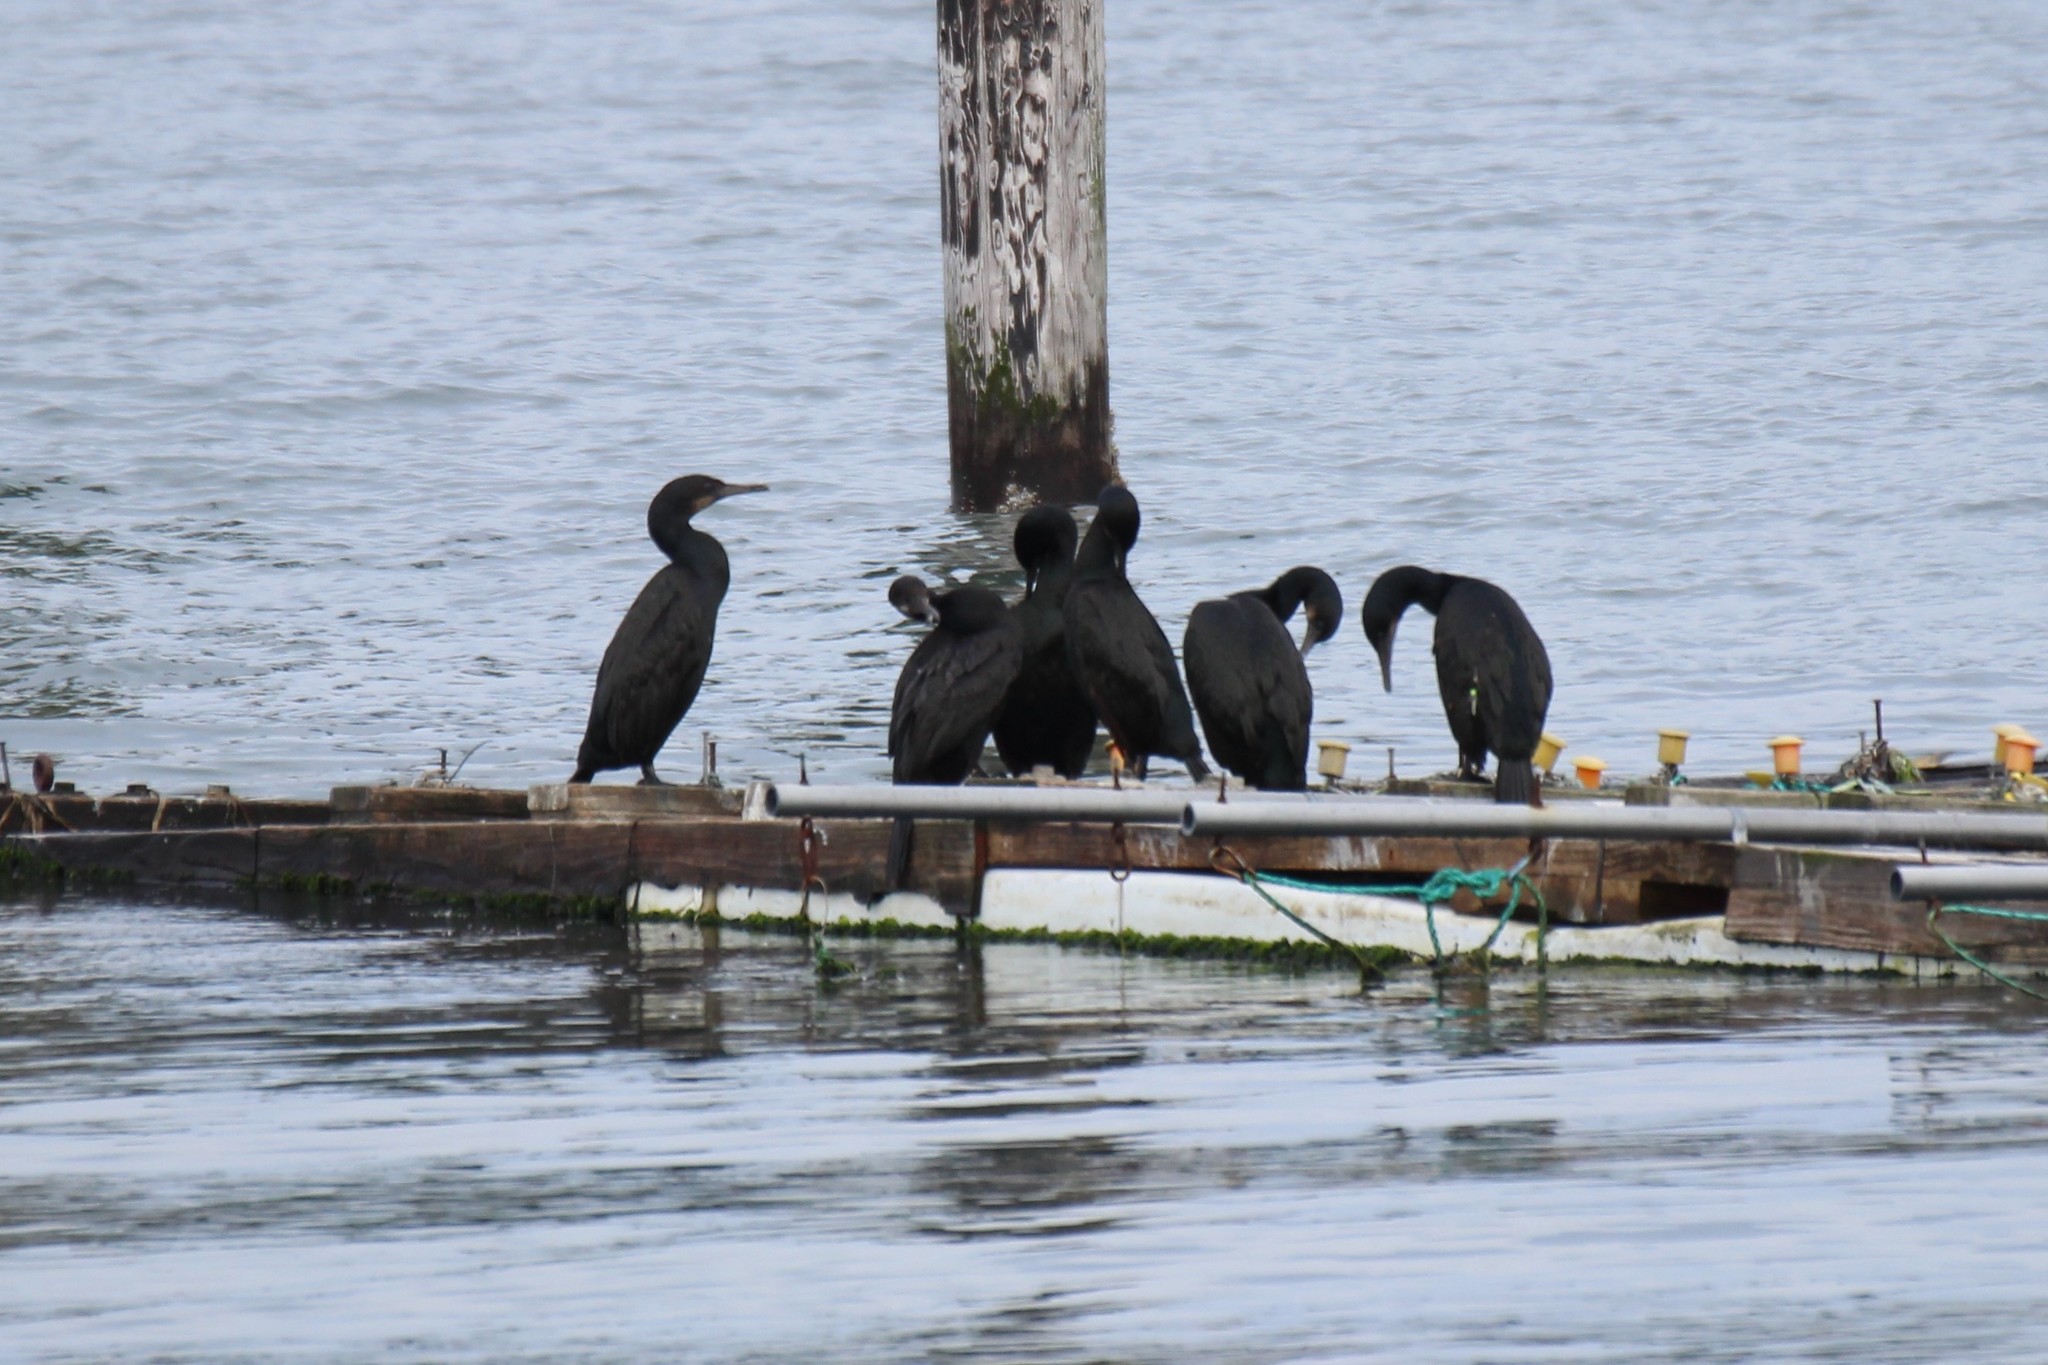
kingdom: Animalia
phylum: Chordata
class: Aves
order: Suliformes
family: Phalacrocoracidae
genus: Urile
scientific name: Urile penicillatus
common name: Brandt's cormorant
